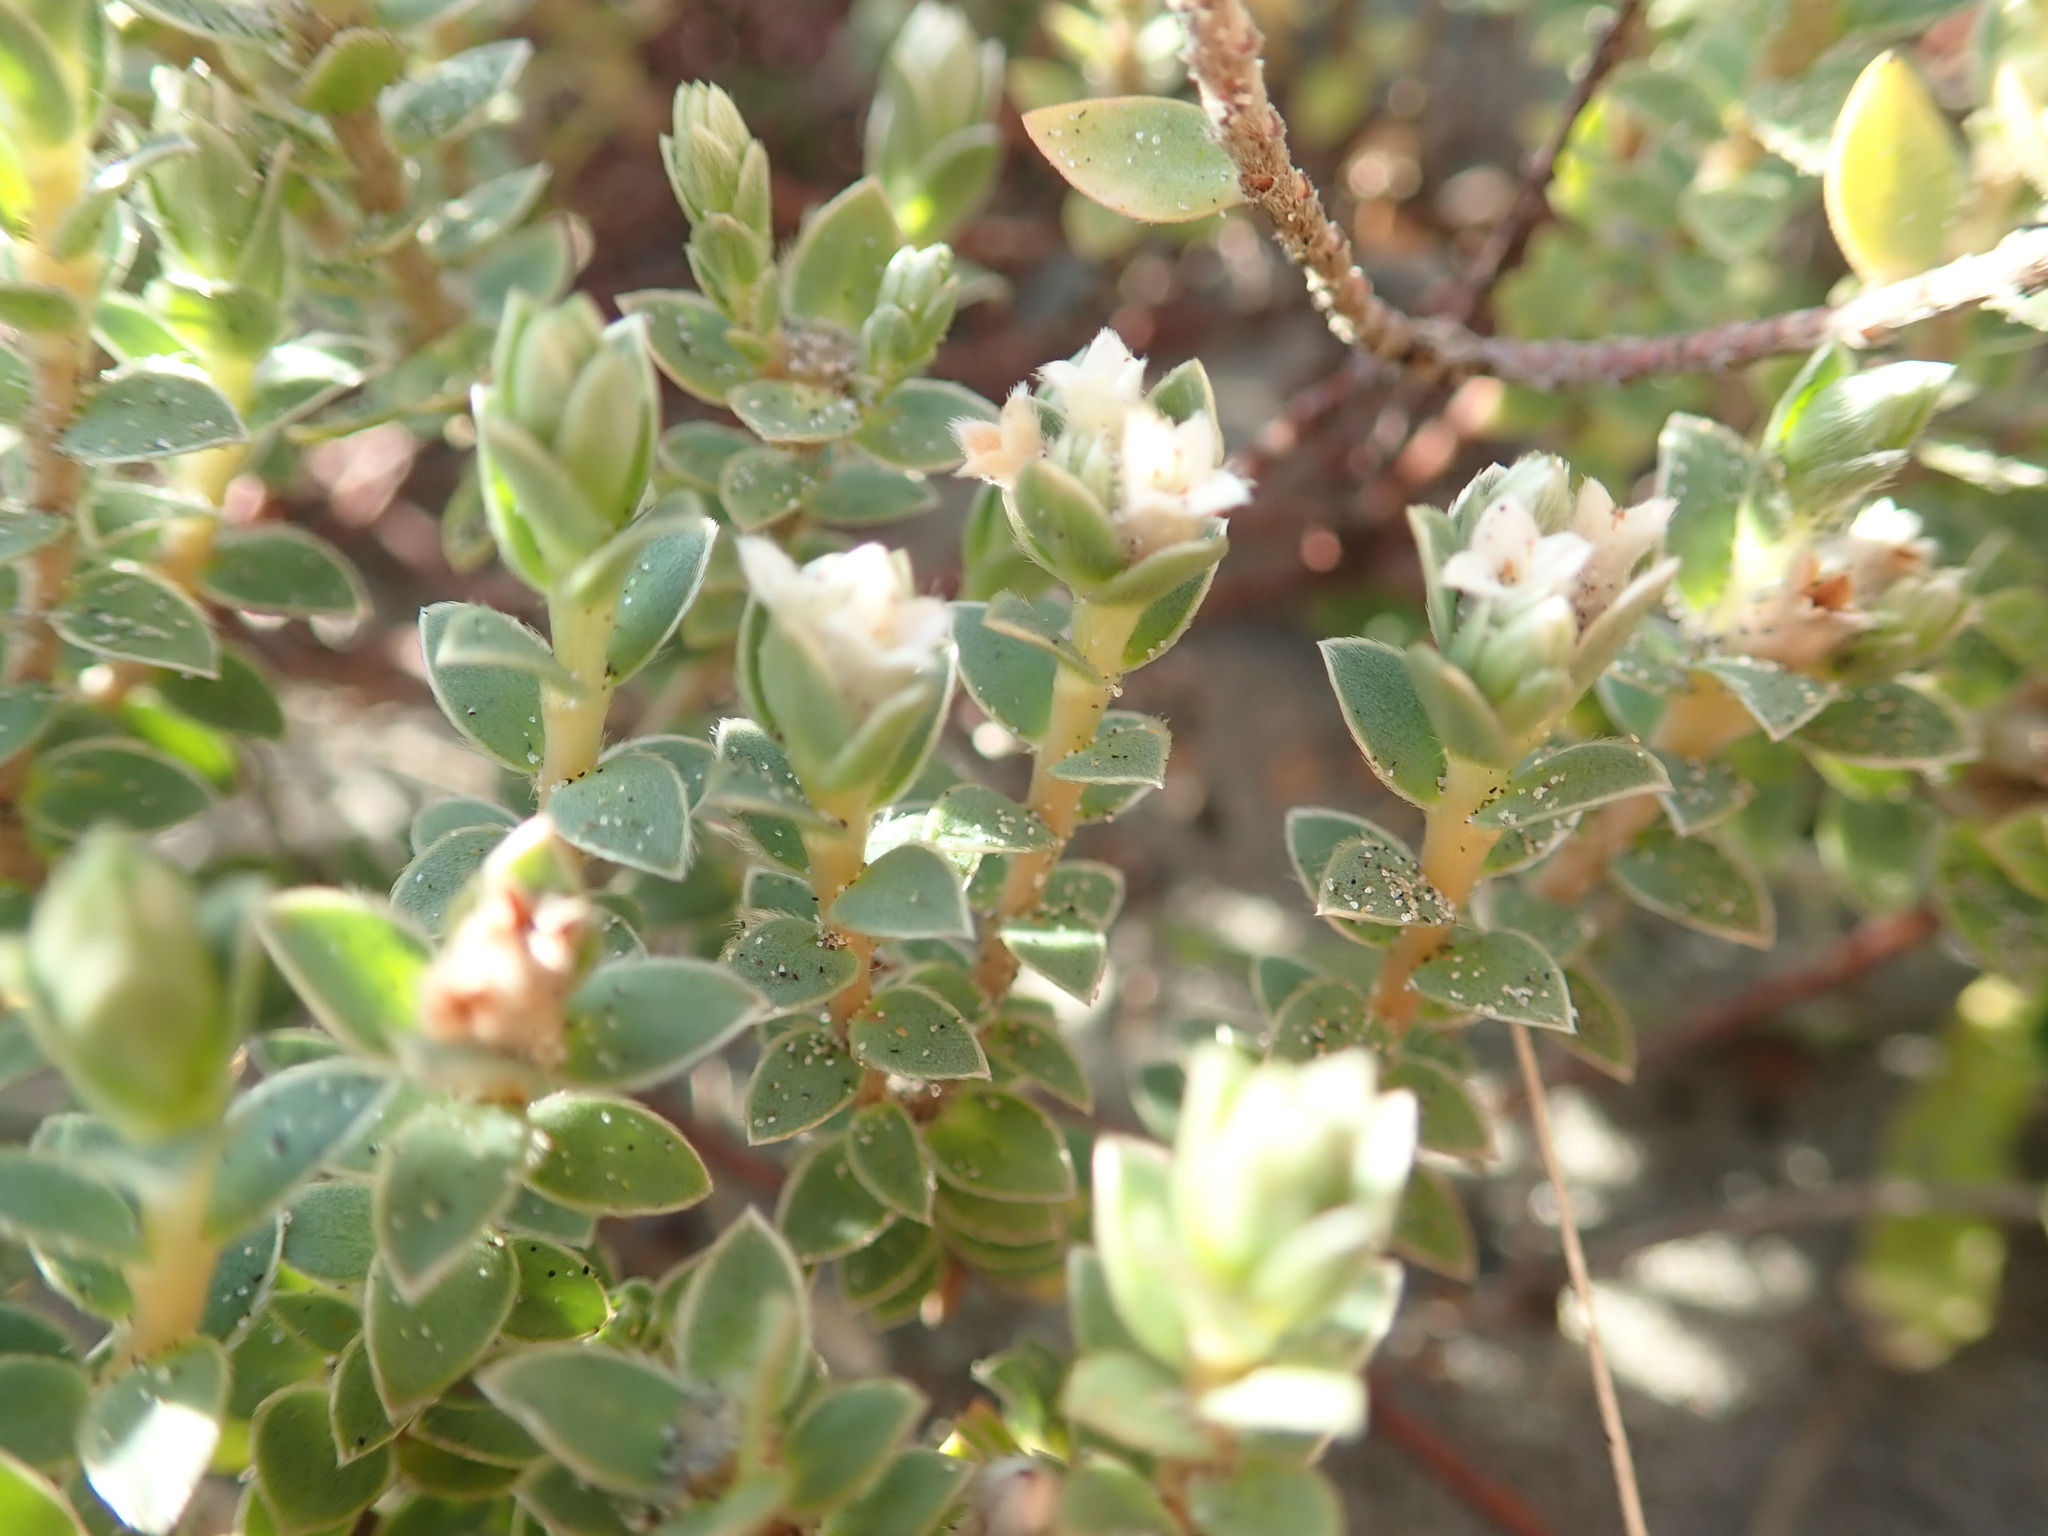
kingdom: Plantae
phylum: Tracheophyta
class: Magnoliopsida
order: Malvales
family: Thymelaeaceae
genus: Pimelea
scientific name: Pimelea villosa
